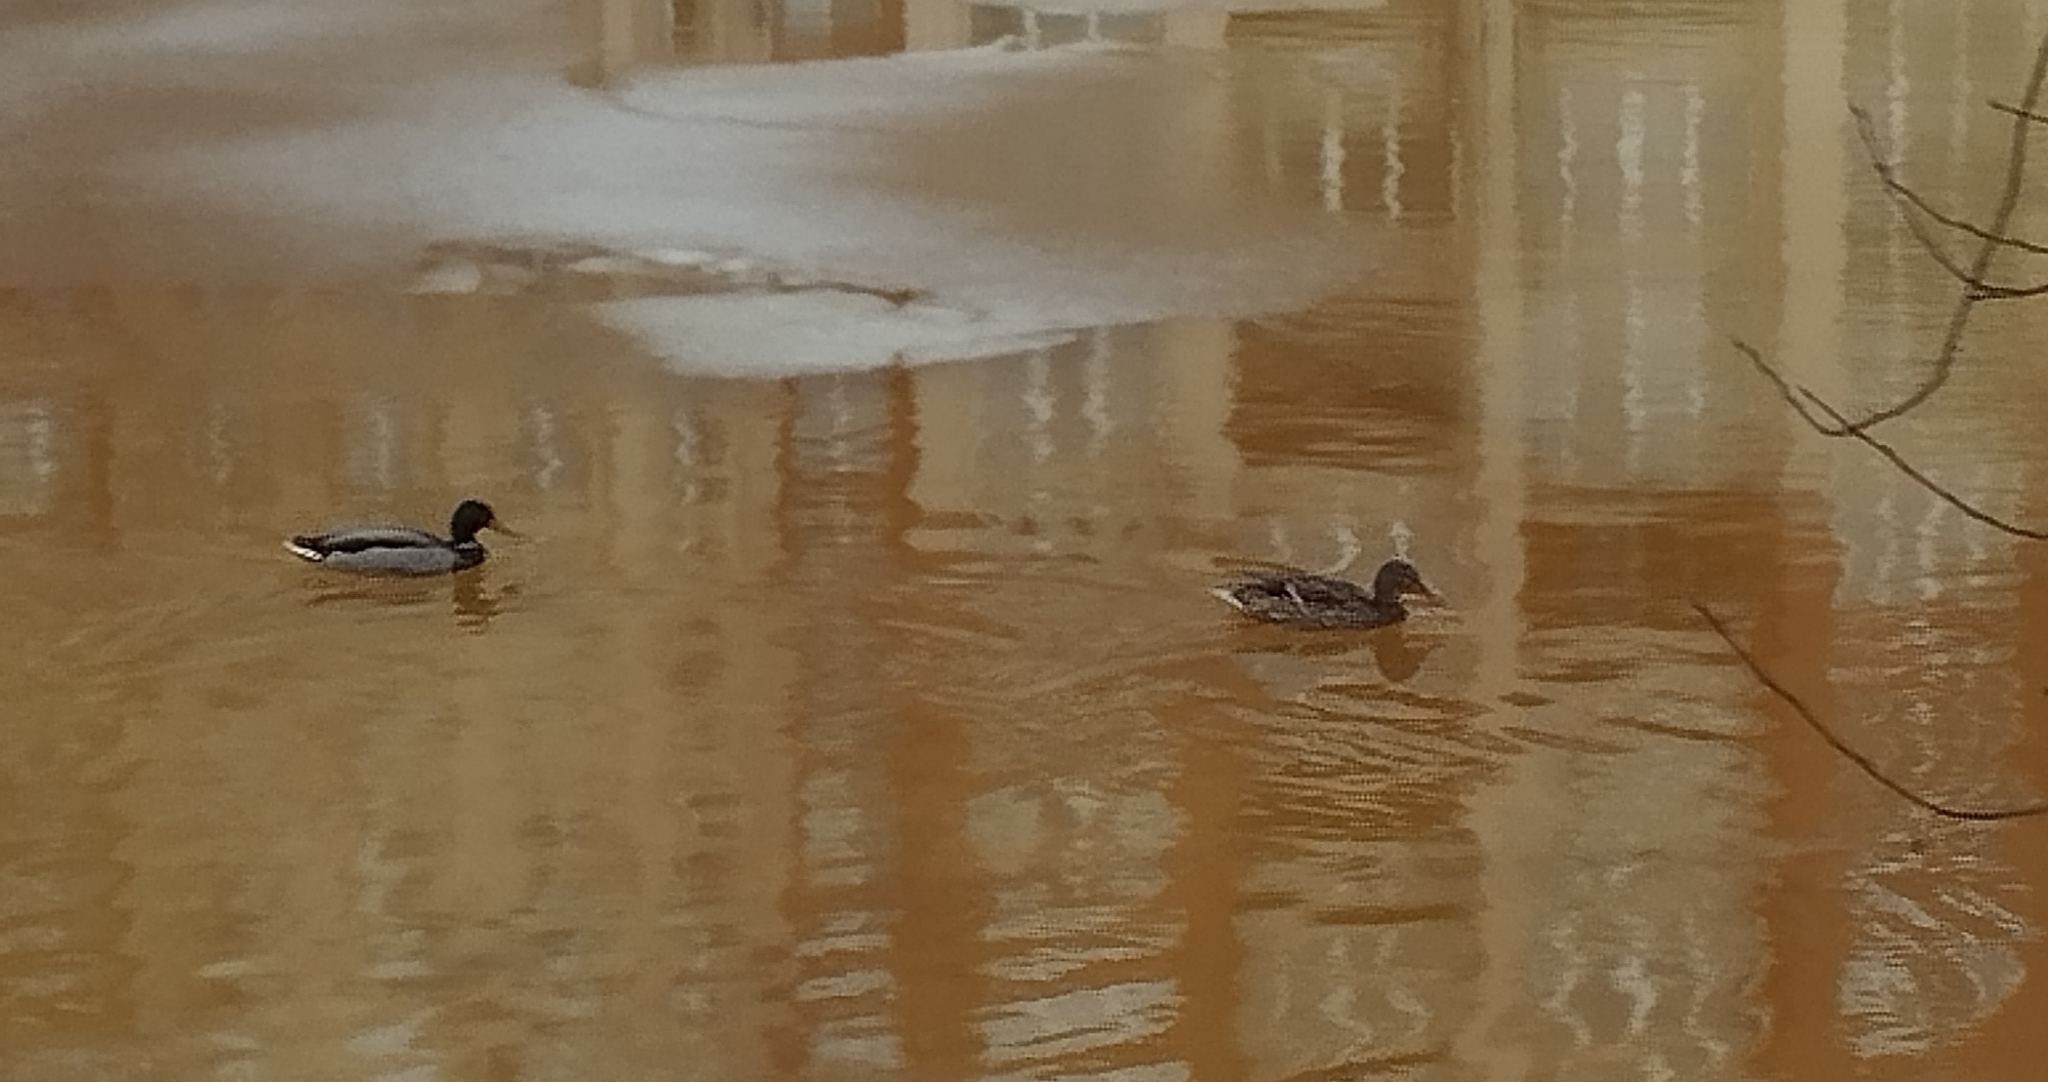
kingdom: Animalia
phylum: Chordata
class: Aves
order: Anseriformes
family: Anatidae
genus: Anas
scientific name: Anas platyrhynchos
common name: Mallard
